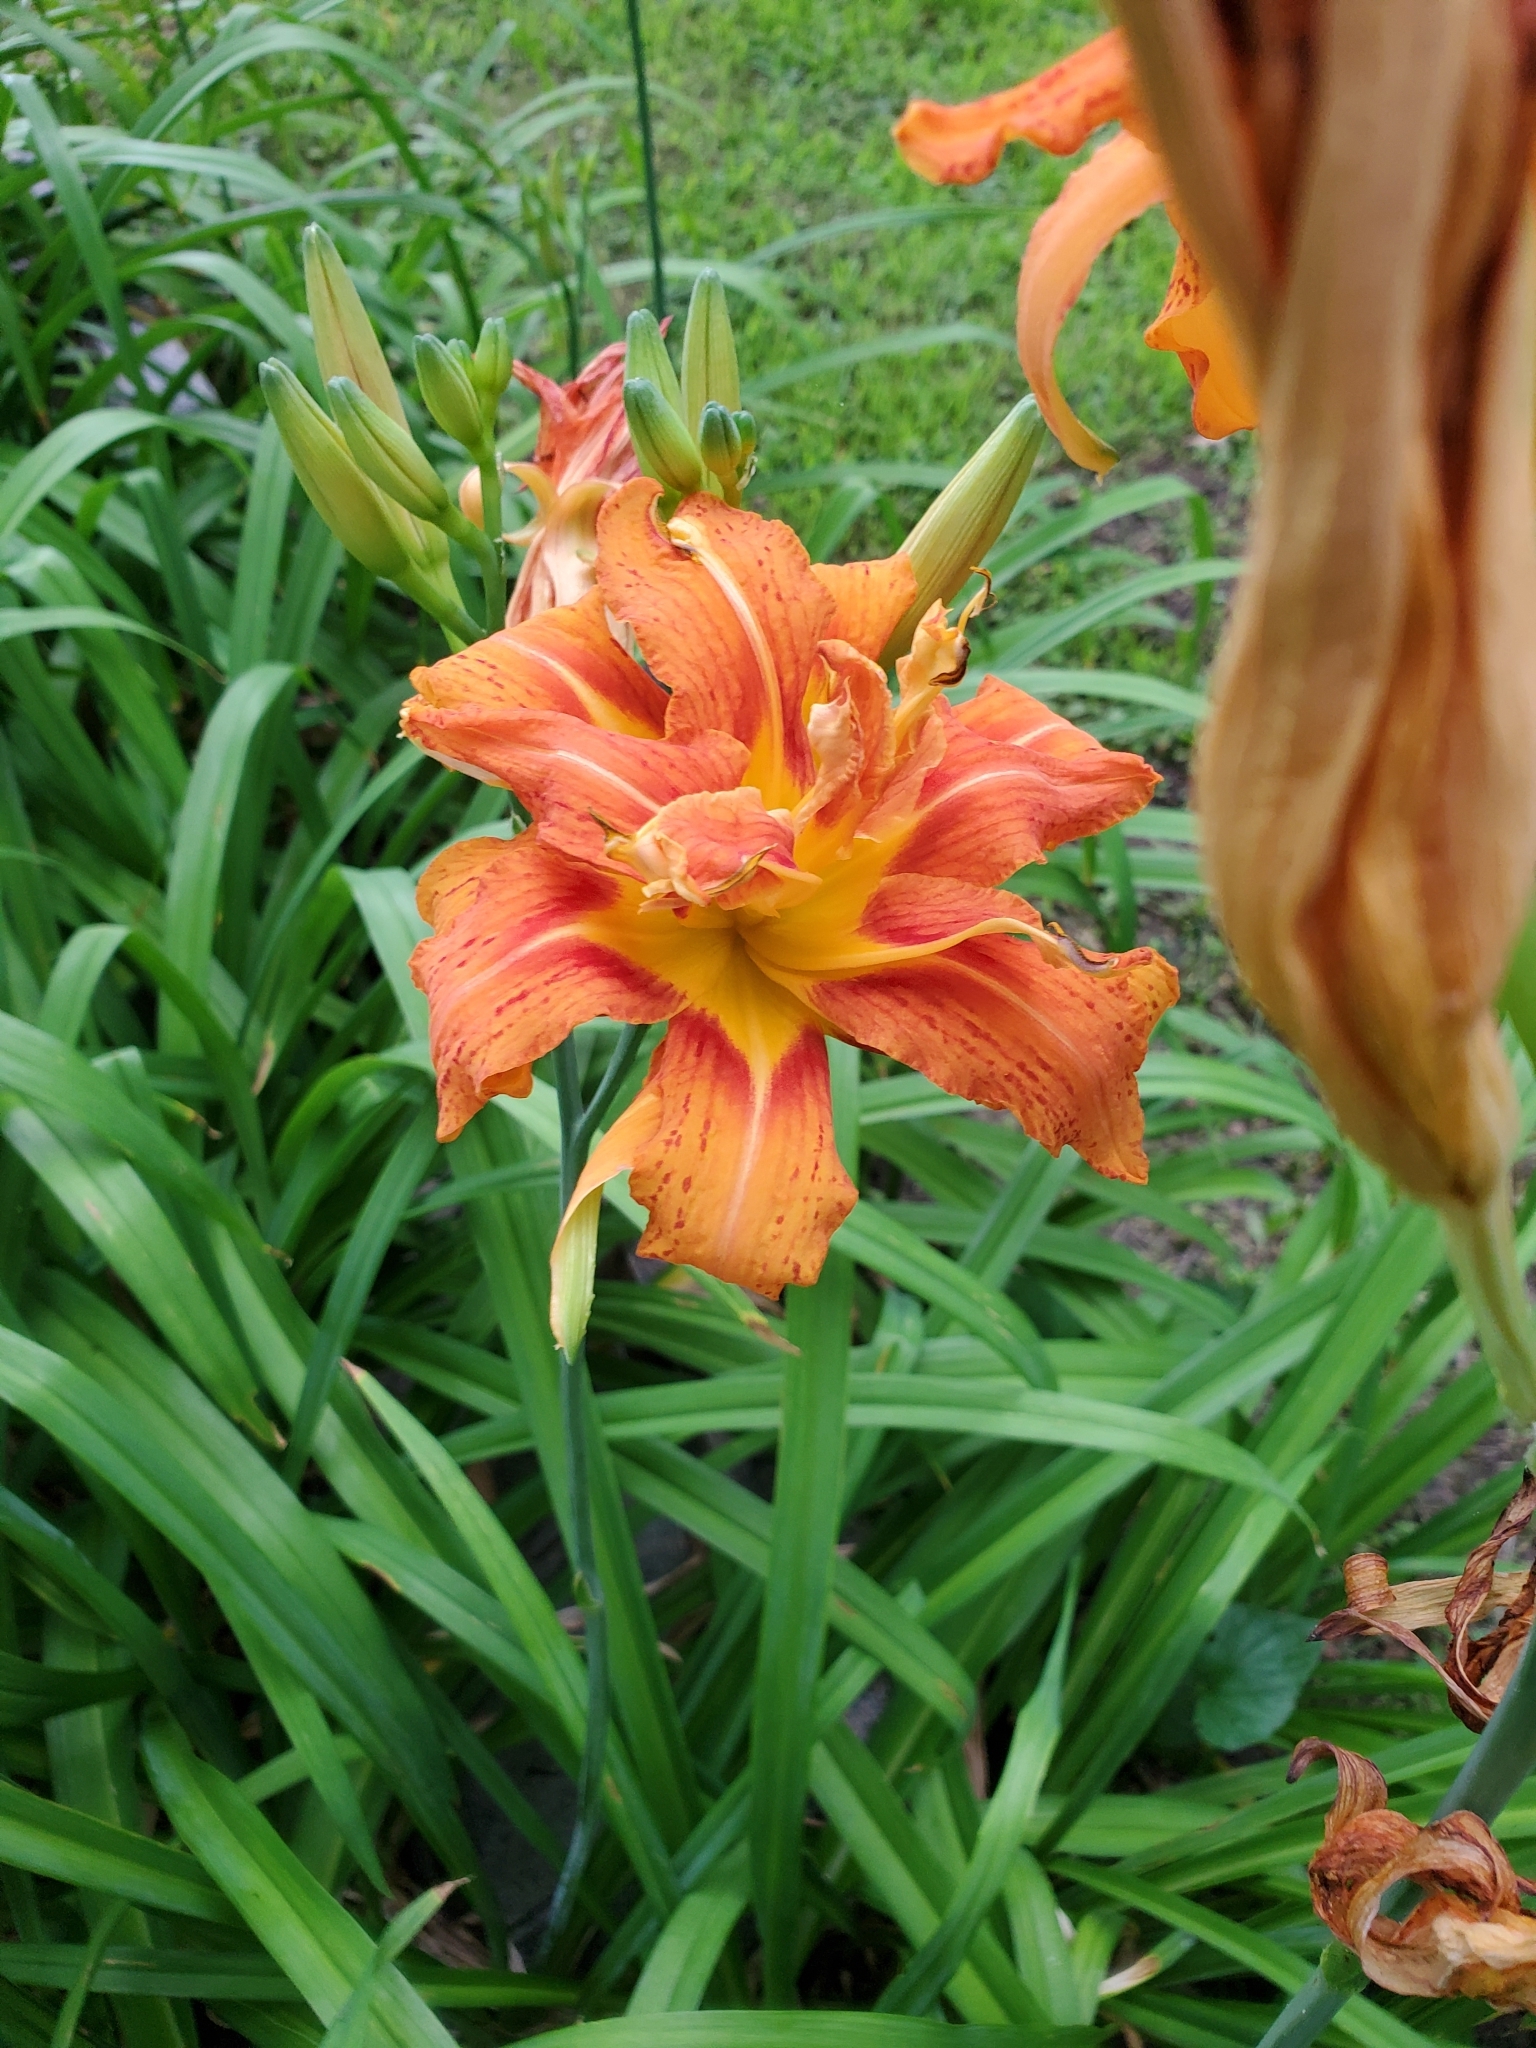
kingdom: Plantae
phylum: Tracheophyta
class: Liliopsida
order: Asparagales
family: Asphodelaceae
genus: Hemerocallis
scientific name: Hemerocallis fulva
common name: Orange day-lily
